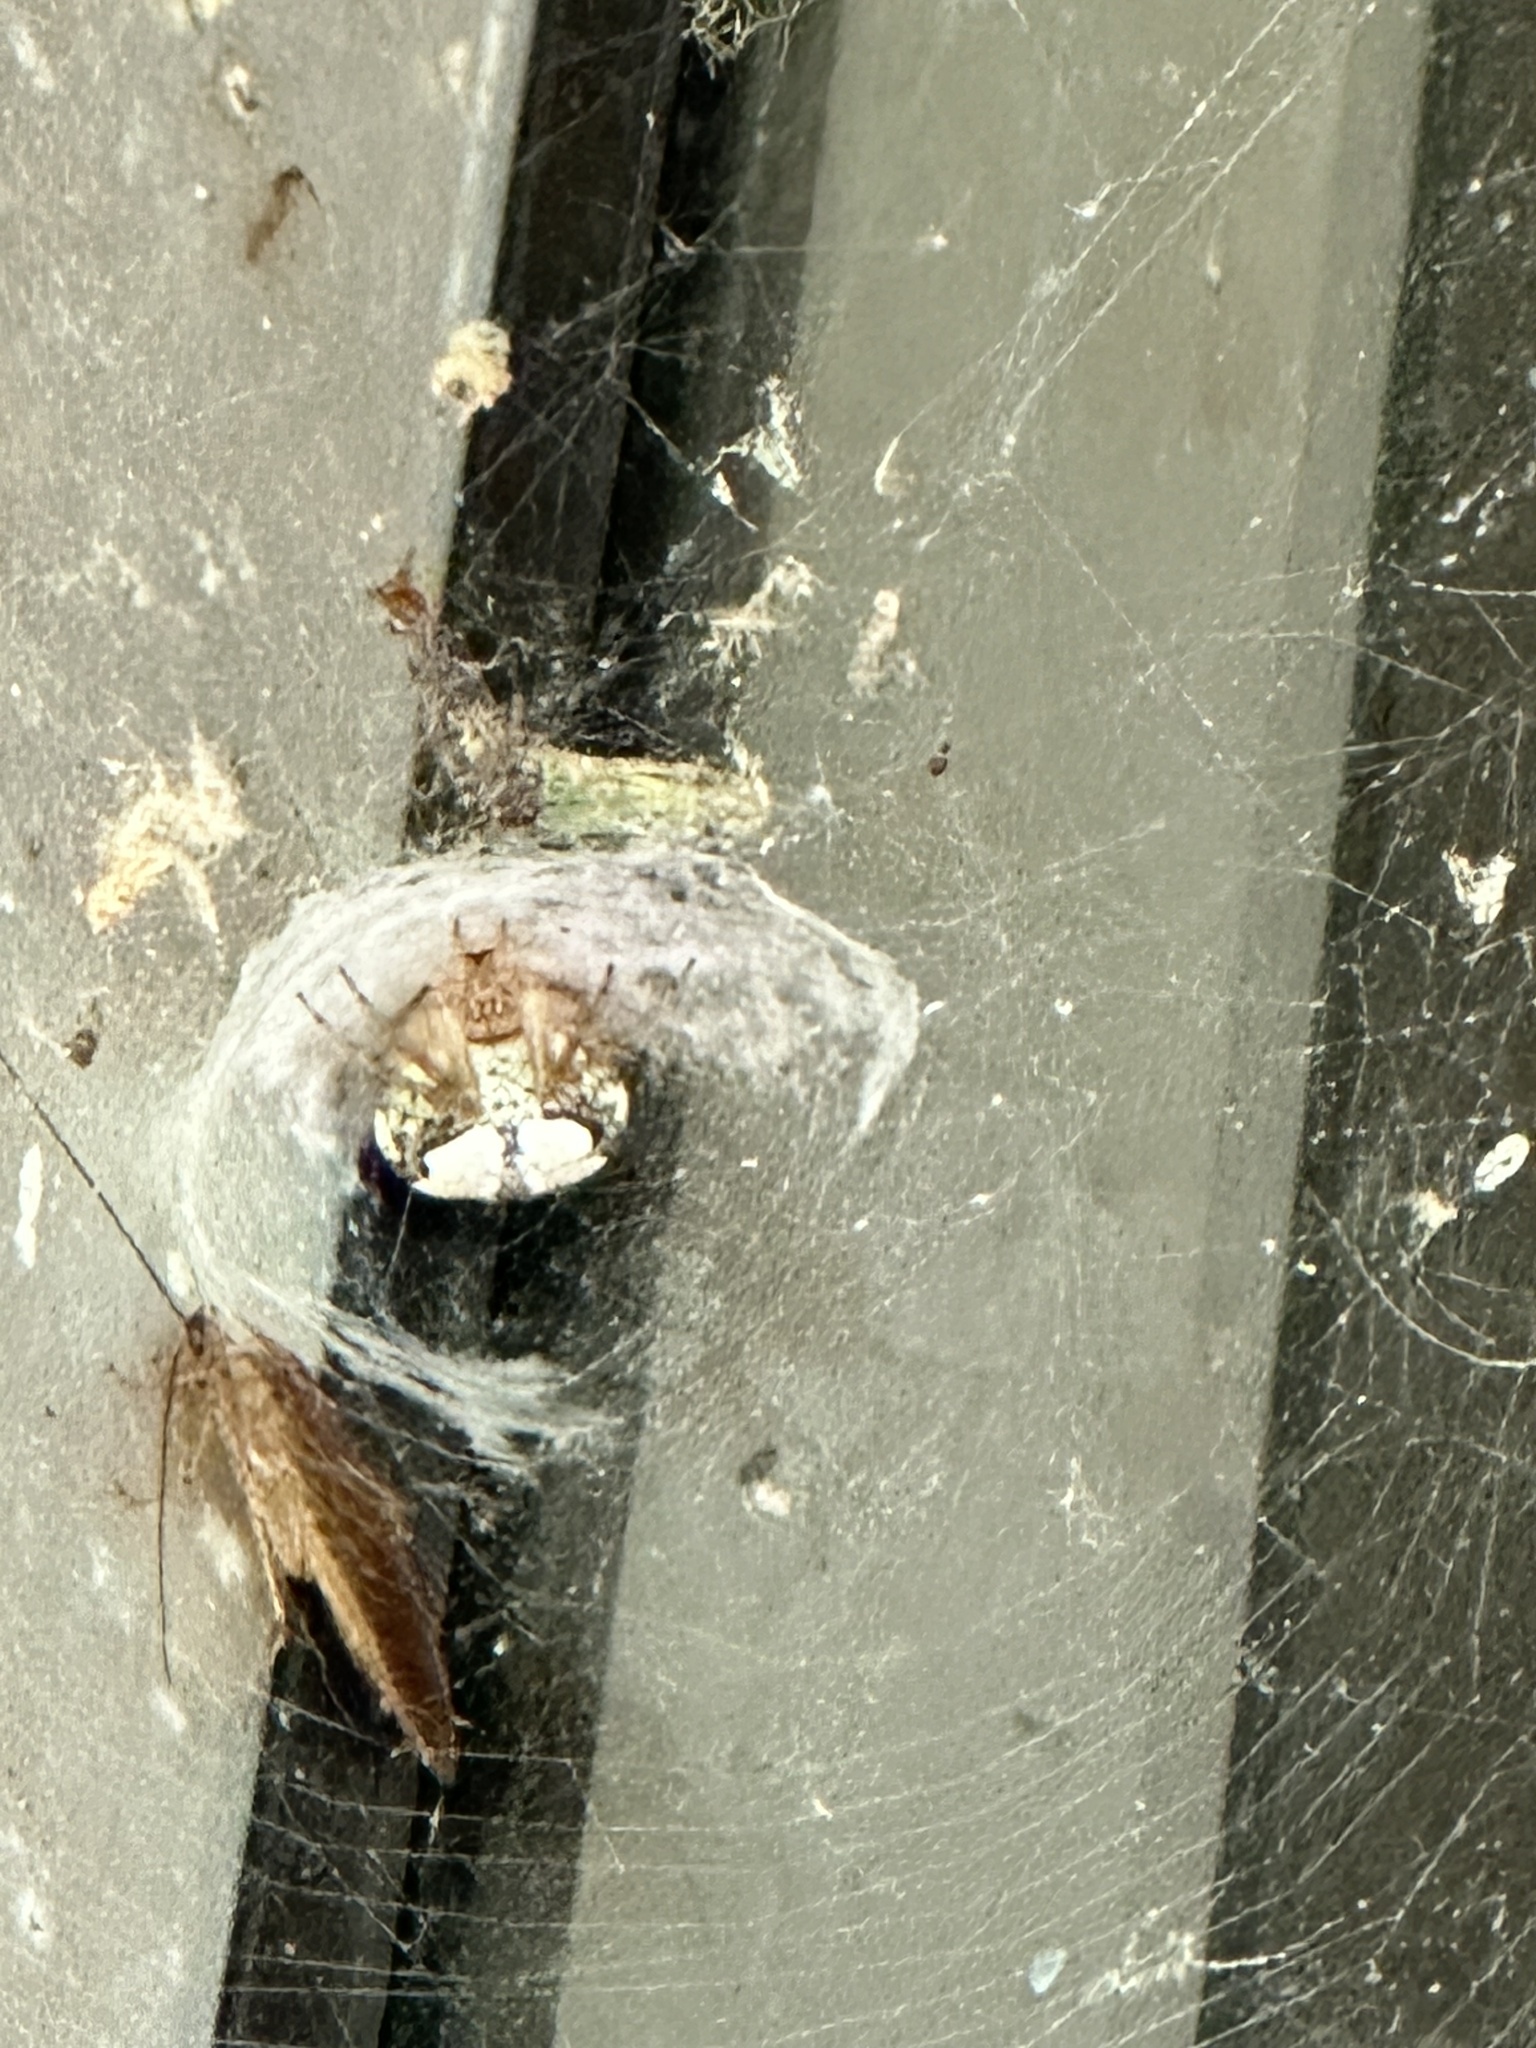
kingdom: Animalia
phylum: Arthropoda
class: Arachnida
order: Araneae
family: Araneidae
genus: Araneus
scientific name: Araneus pegnia
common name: Orb weavers
